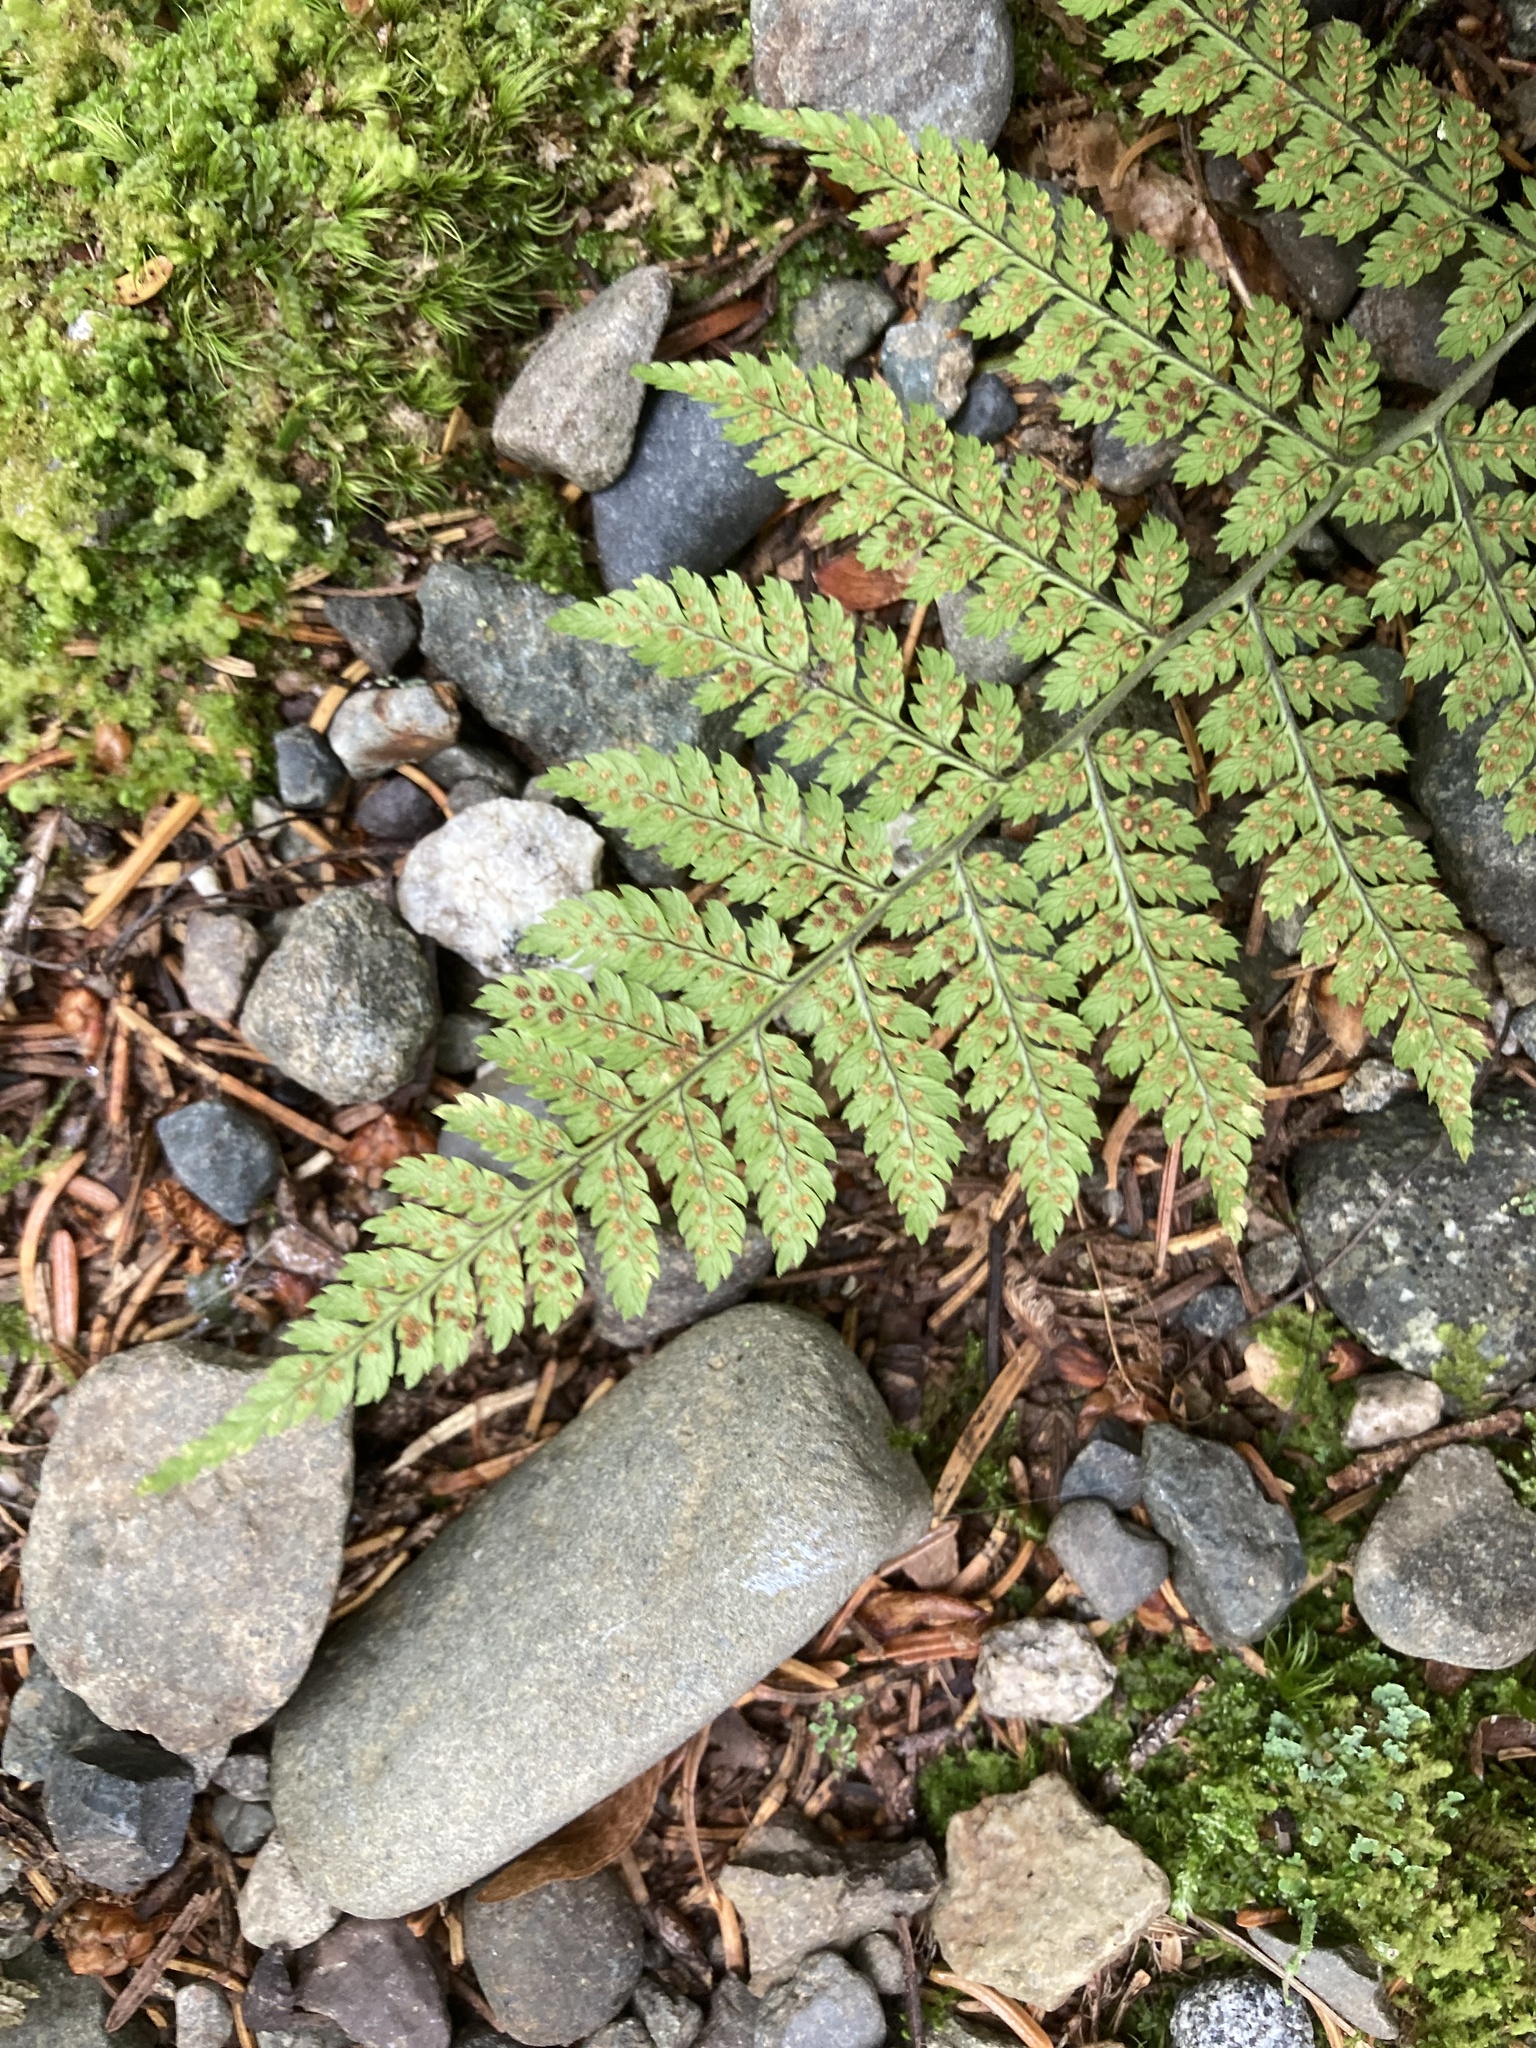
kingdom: Plantae
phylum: Tracheophyta
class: Polypodiopsida
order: Polypodiales
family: Dryopteridaceae
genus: Dryopteris
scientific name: Dryopteris intermedia
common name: Evergreen wood fern
